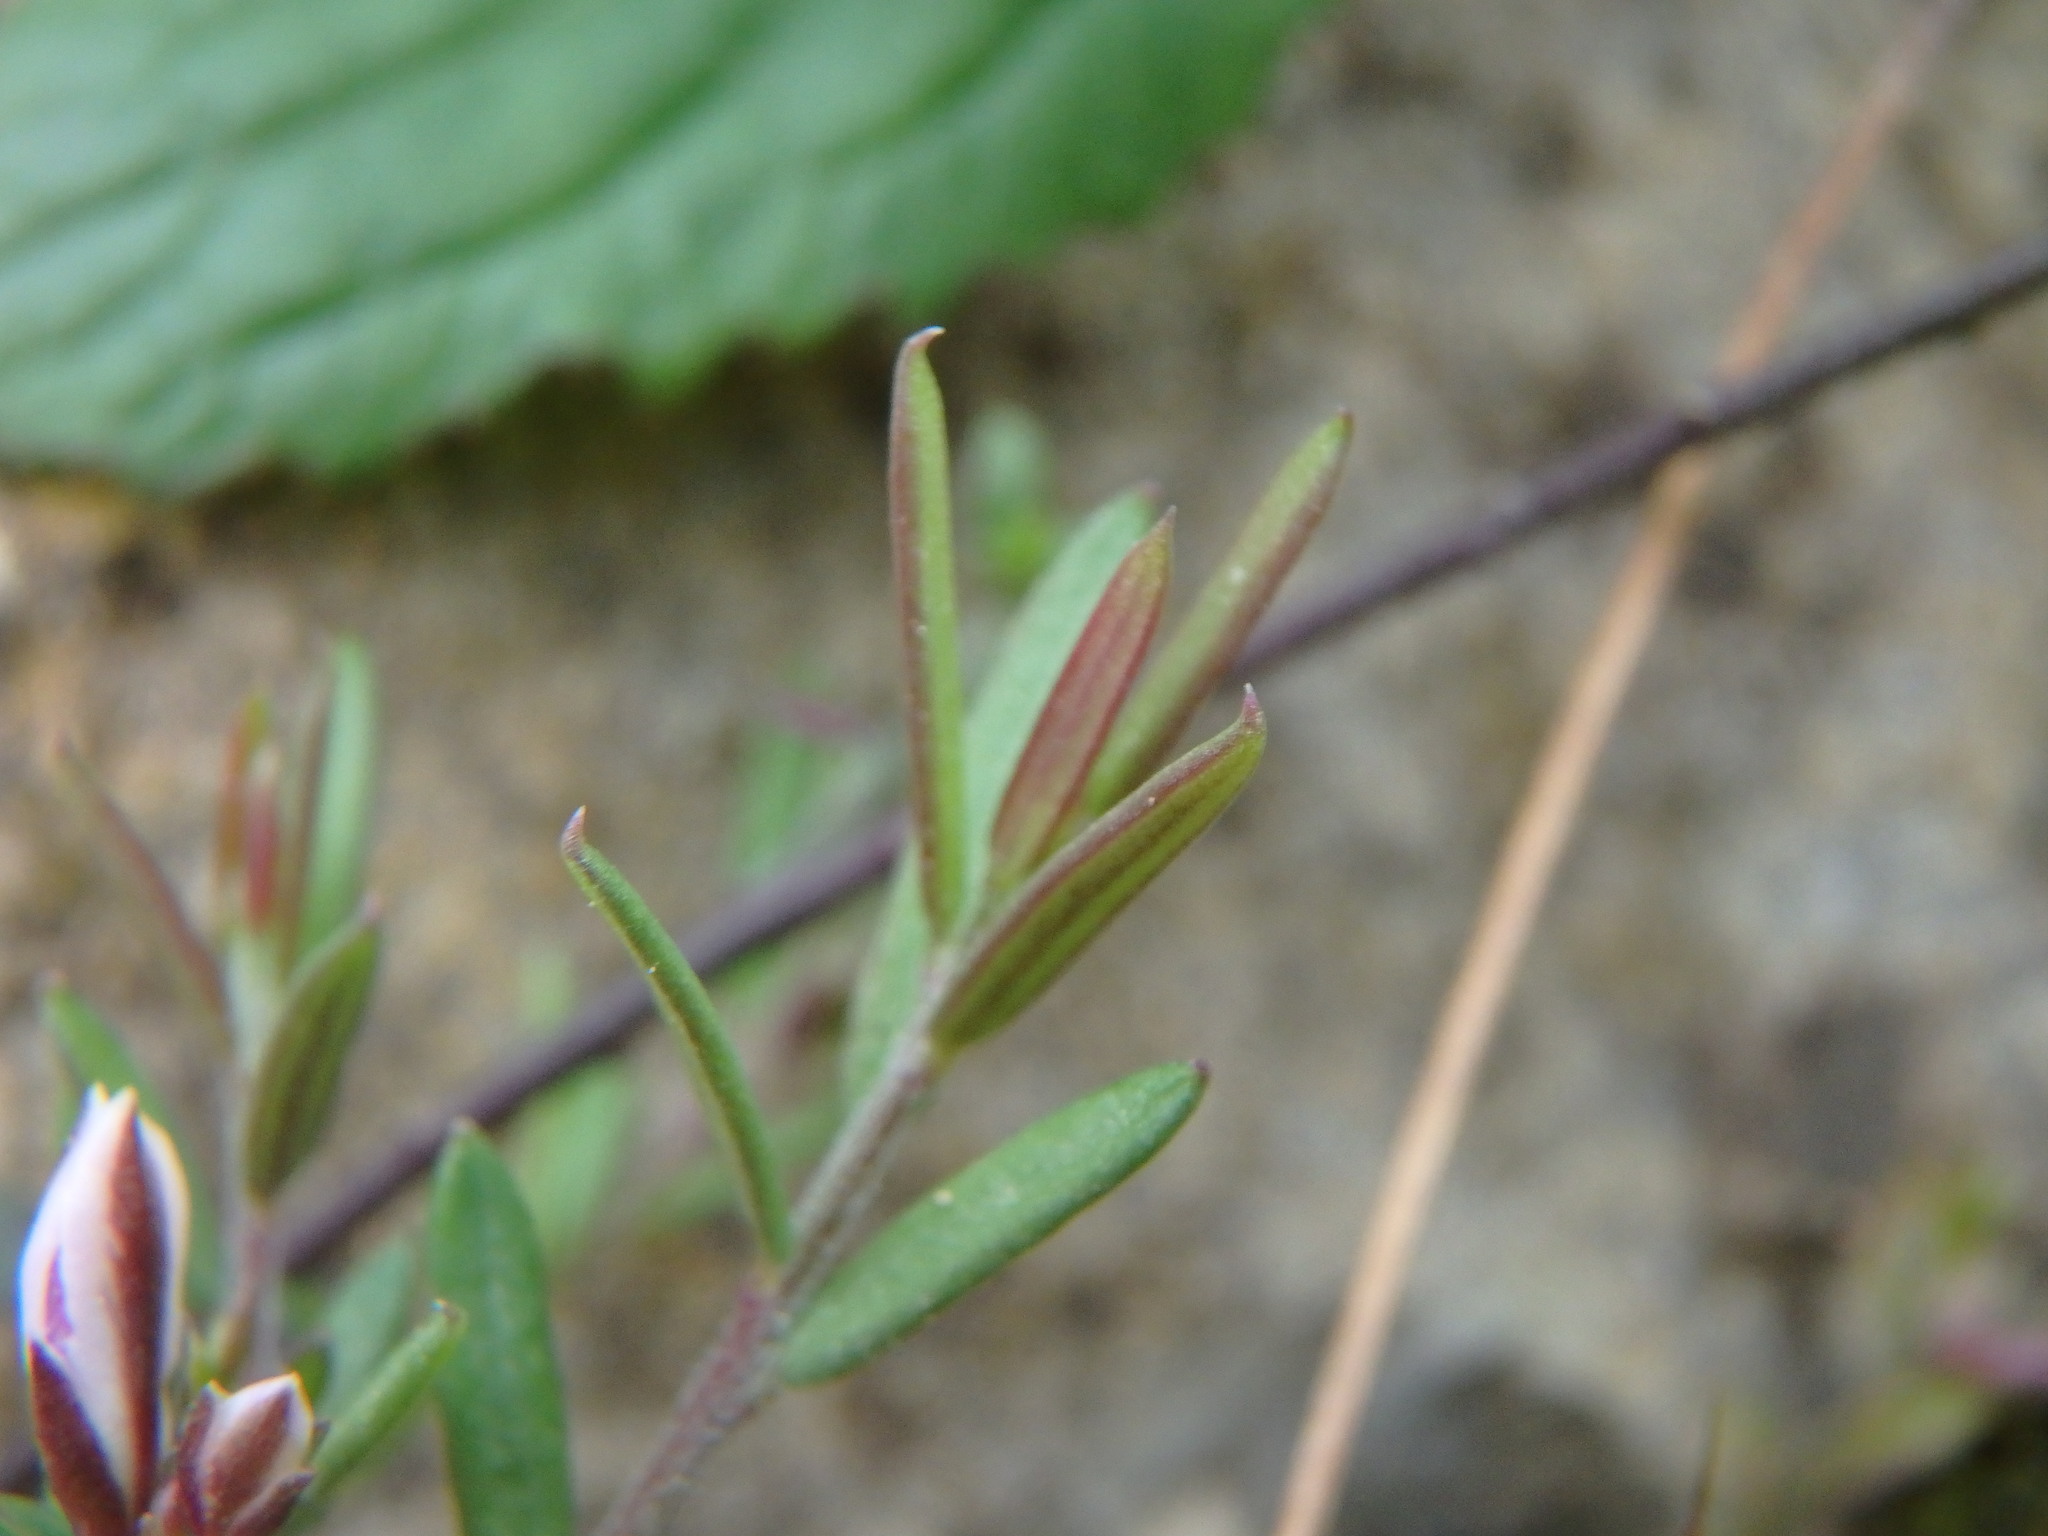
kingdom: Plantae
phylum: Tracheophyta
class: Magnoliopsida
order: Fabales
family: Polygalaceae
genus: Polygala
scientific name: Polygala rupestris
